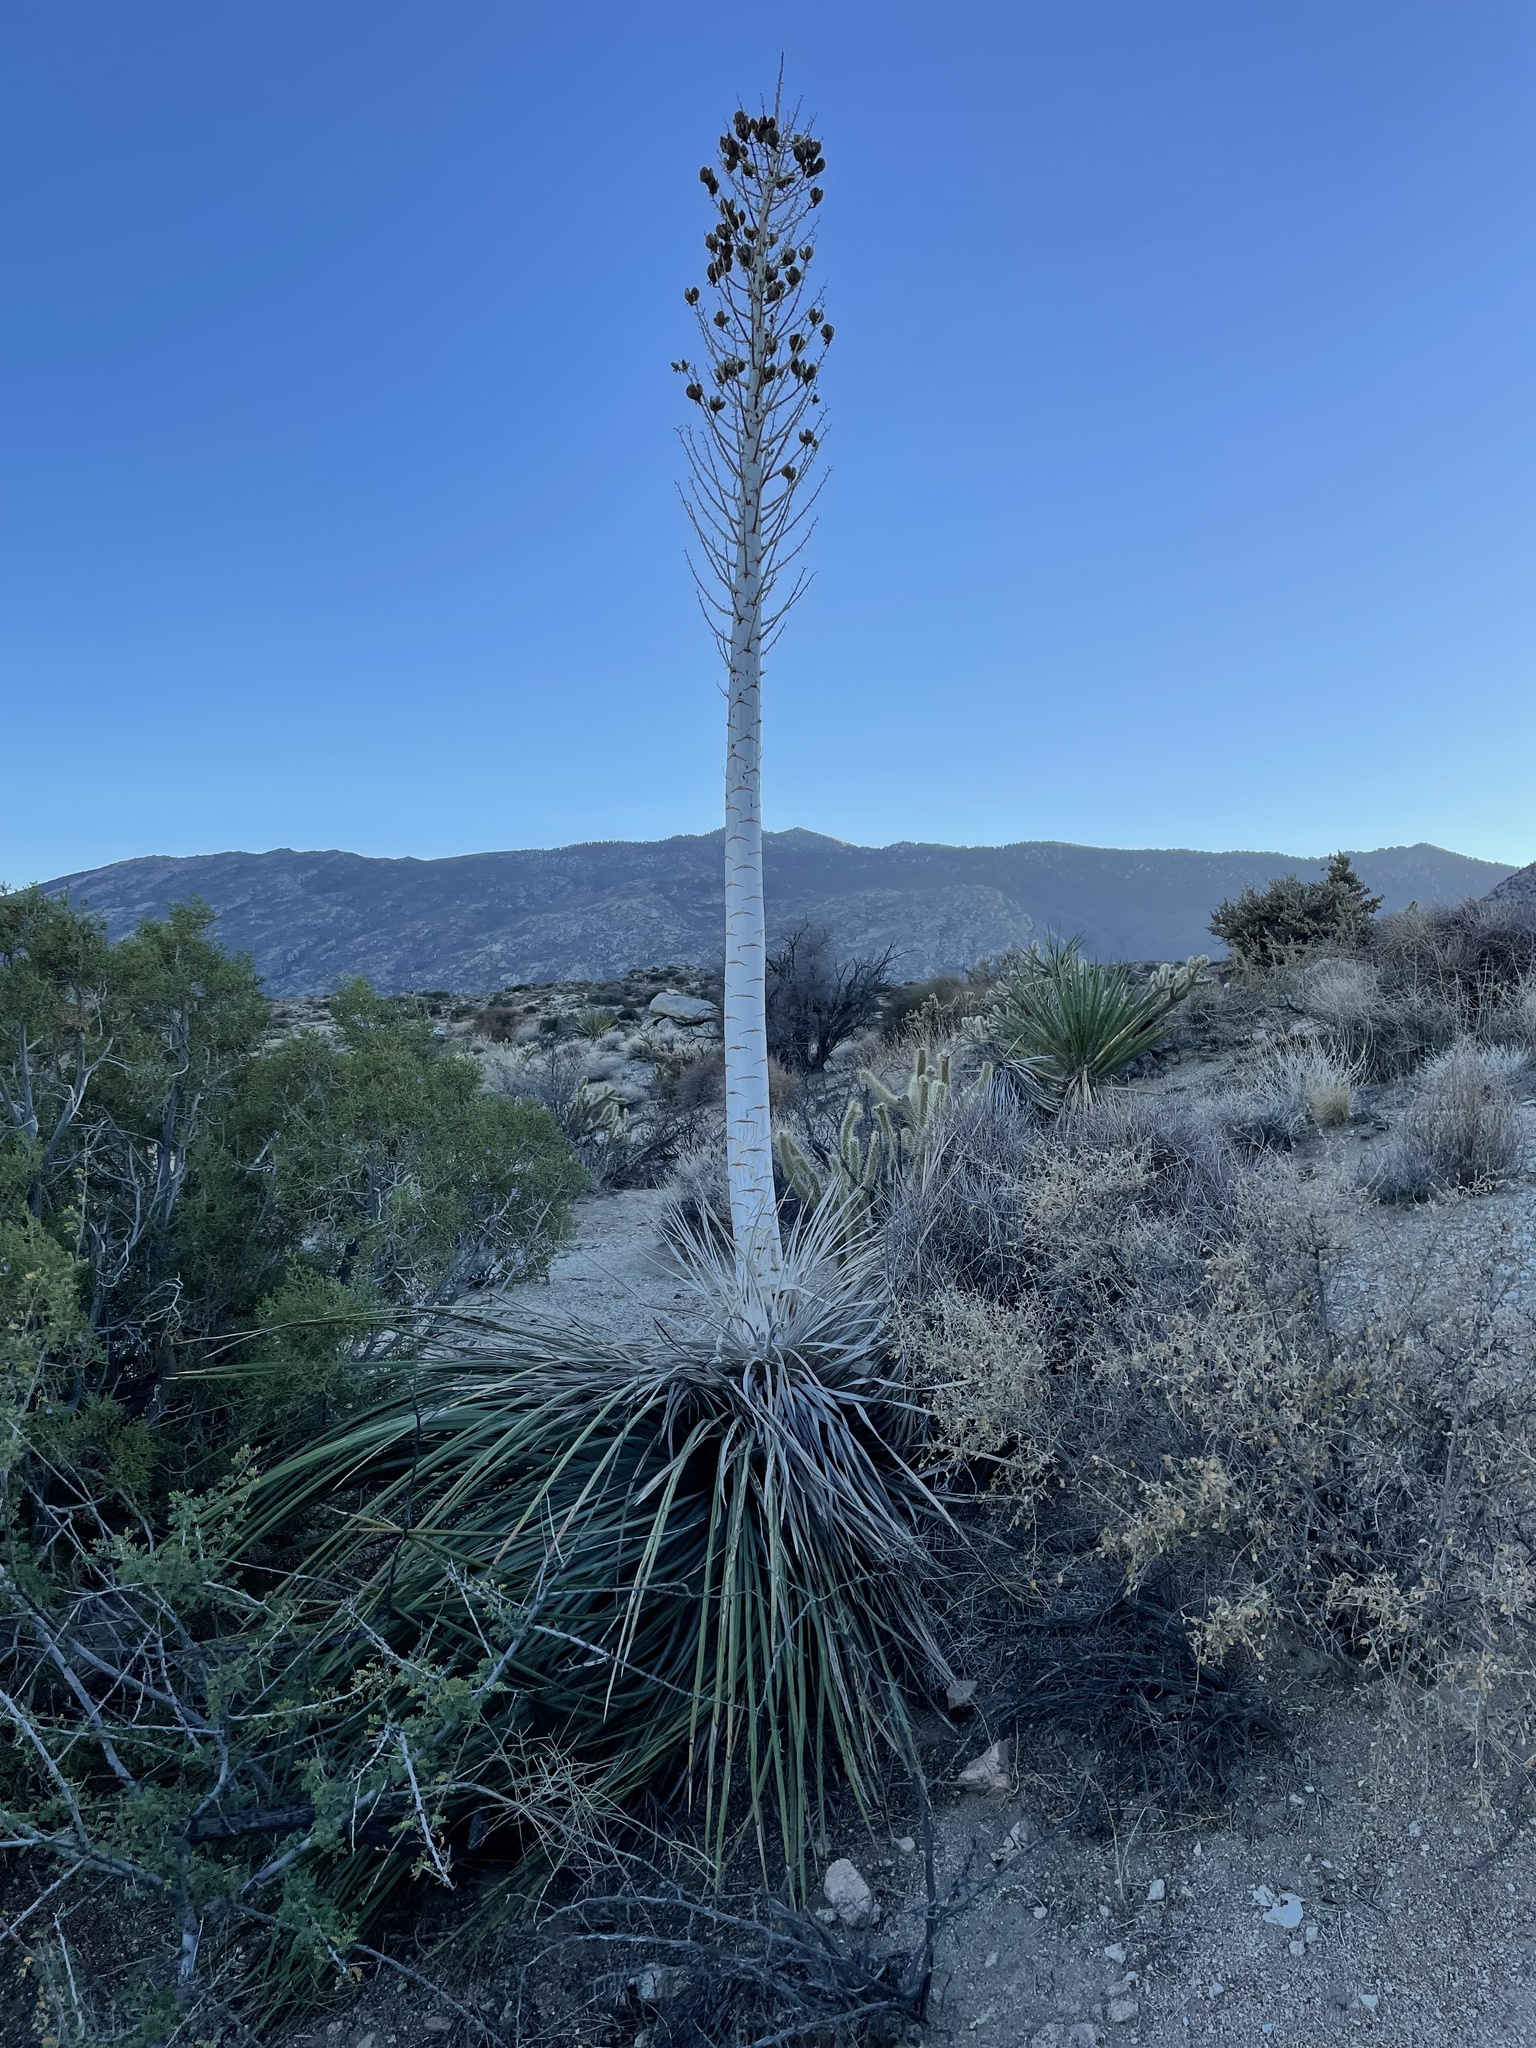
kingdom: Plantae
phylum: Tracheophyta
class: Liliopsida
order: Asparagales
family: Asparagaceae
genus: Hesperoyucca
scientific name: Hesperoyucca whipplei
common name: Our lord's-candle
